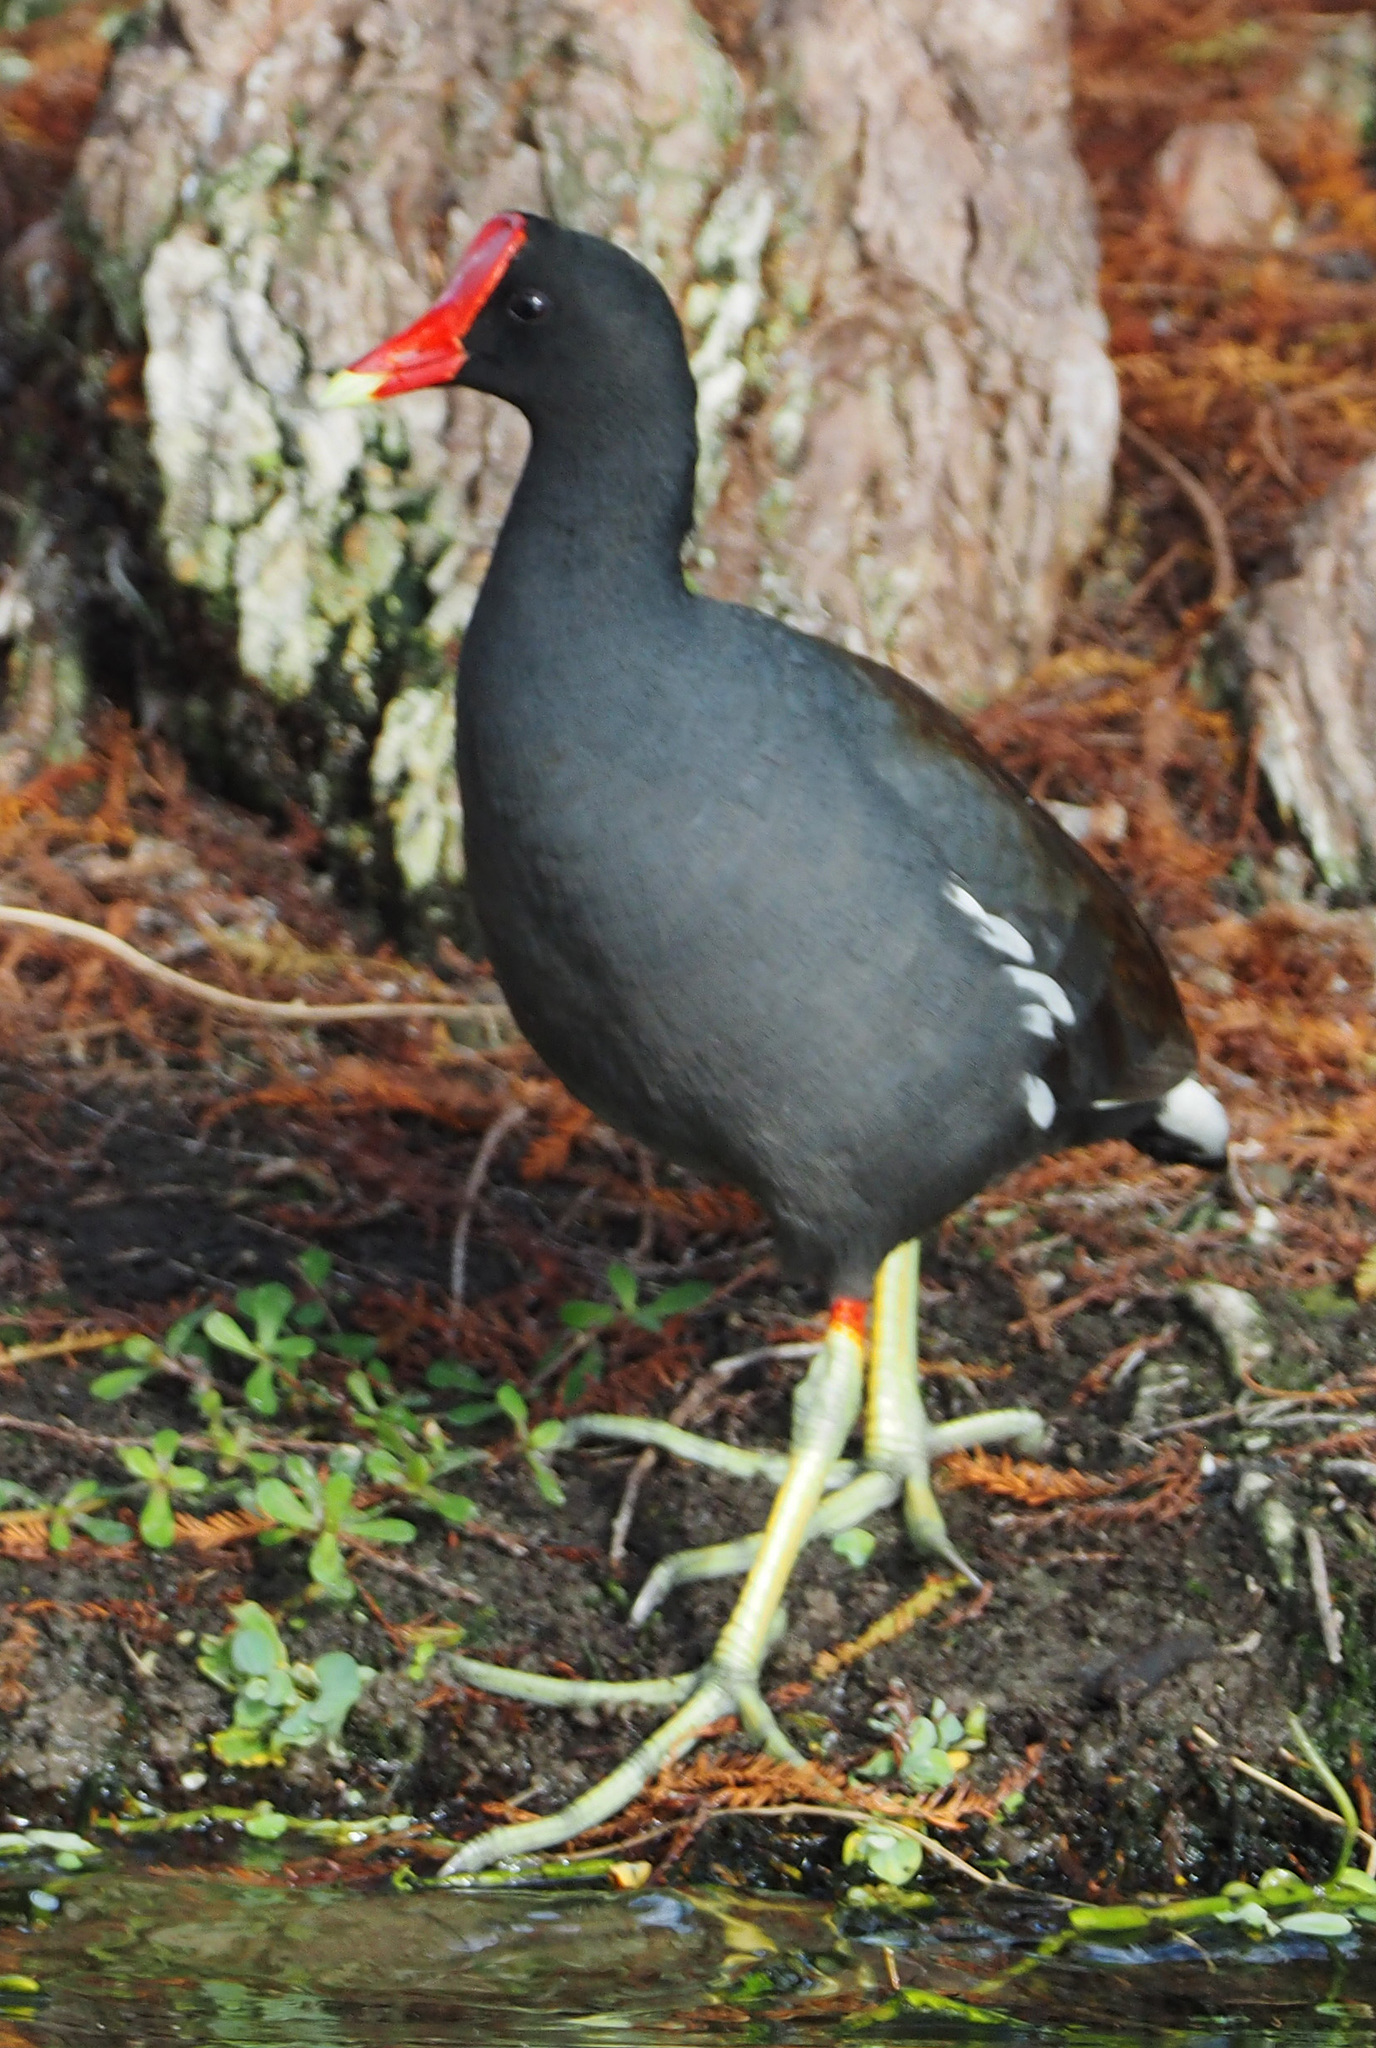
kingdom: Animalia
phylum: Chordata
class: Aves
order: Gruiformes
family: Rallidae
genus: Gallinula
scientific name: Gallinula chloropus
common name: Common moorhen
